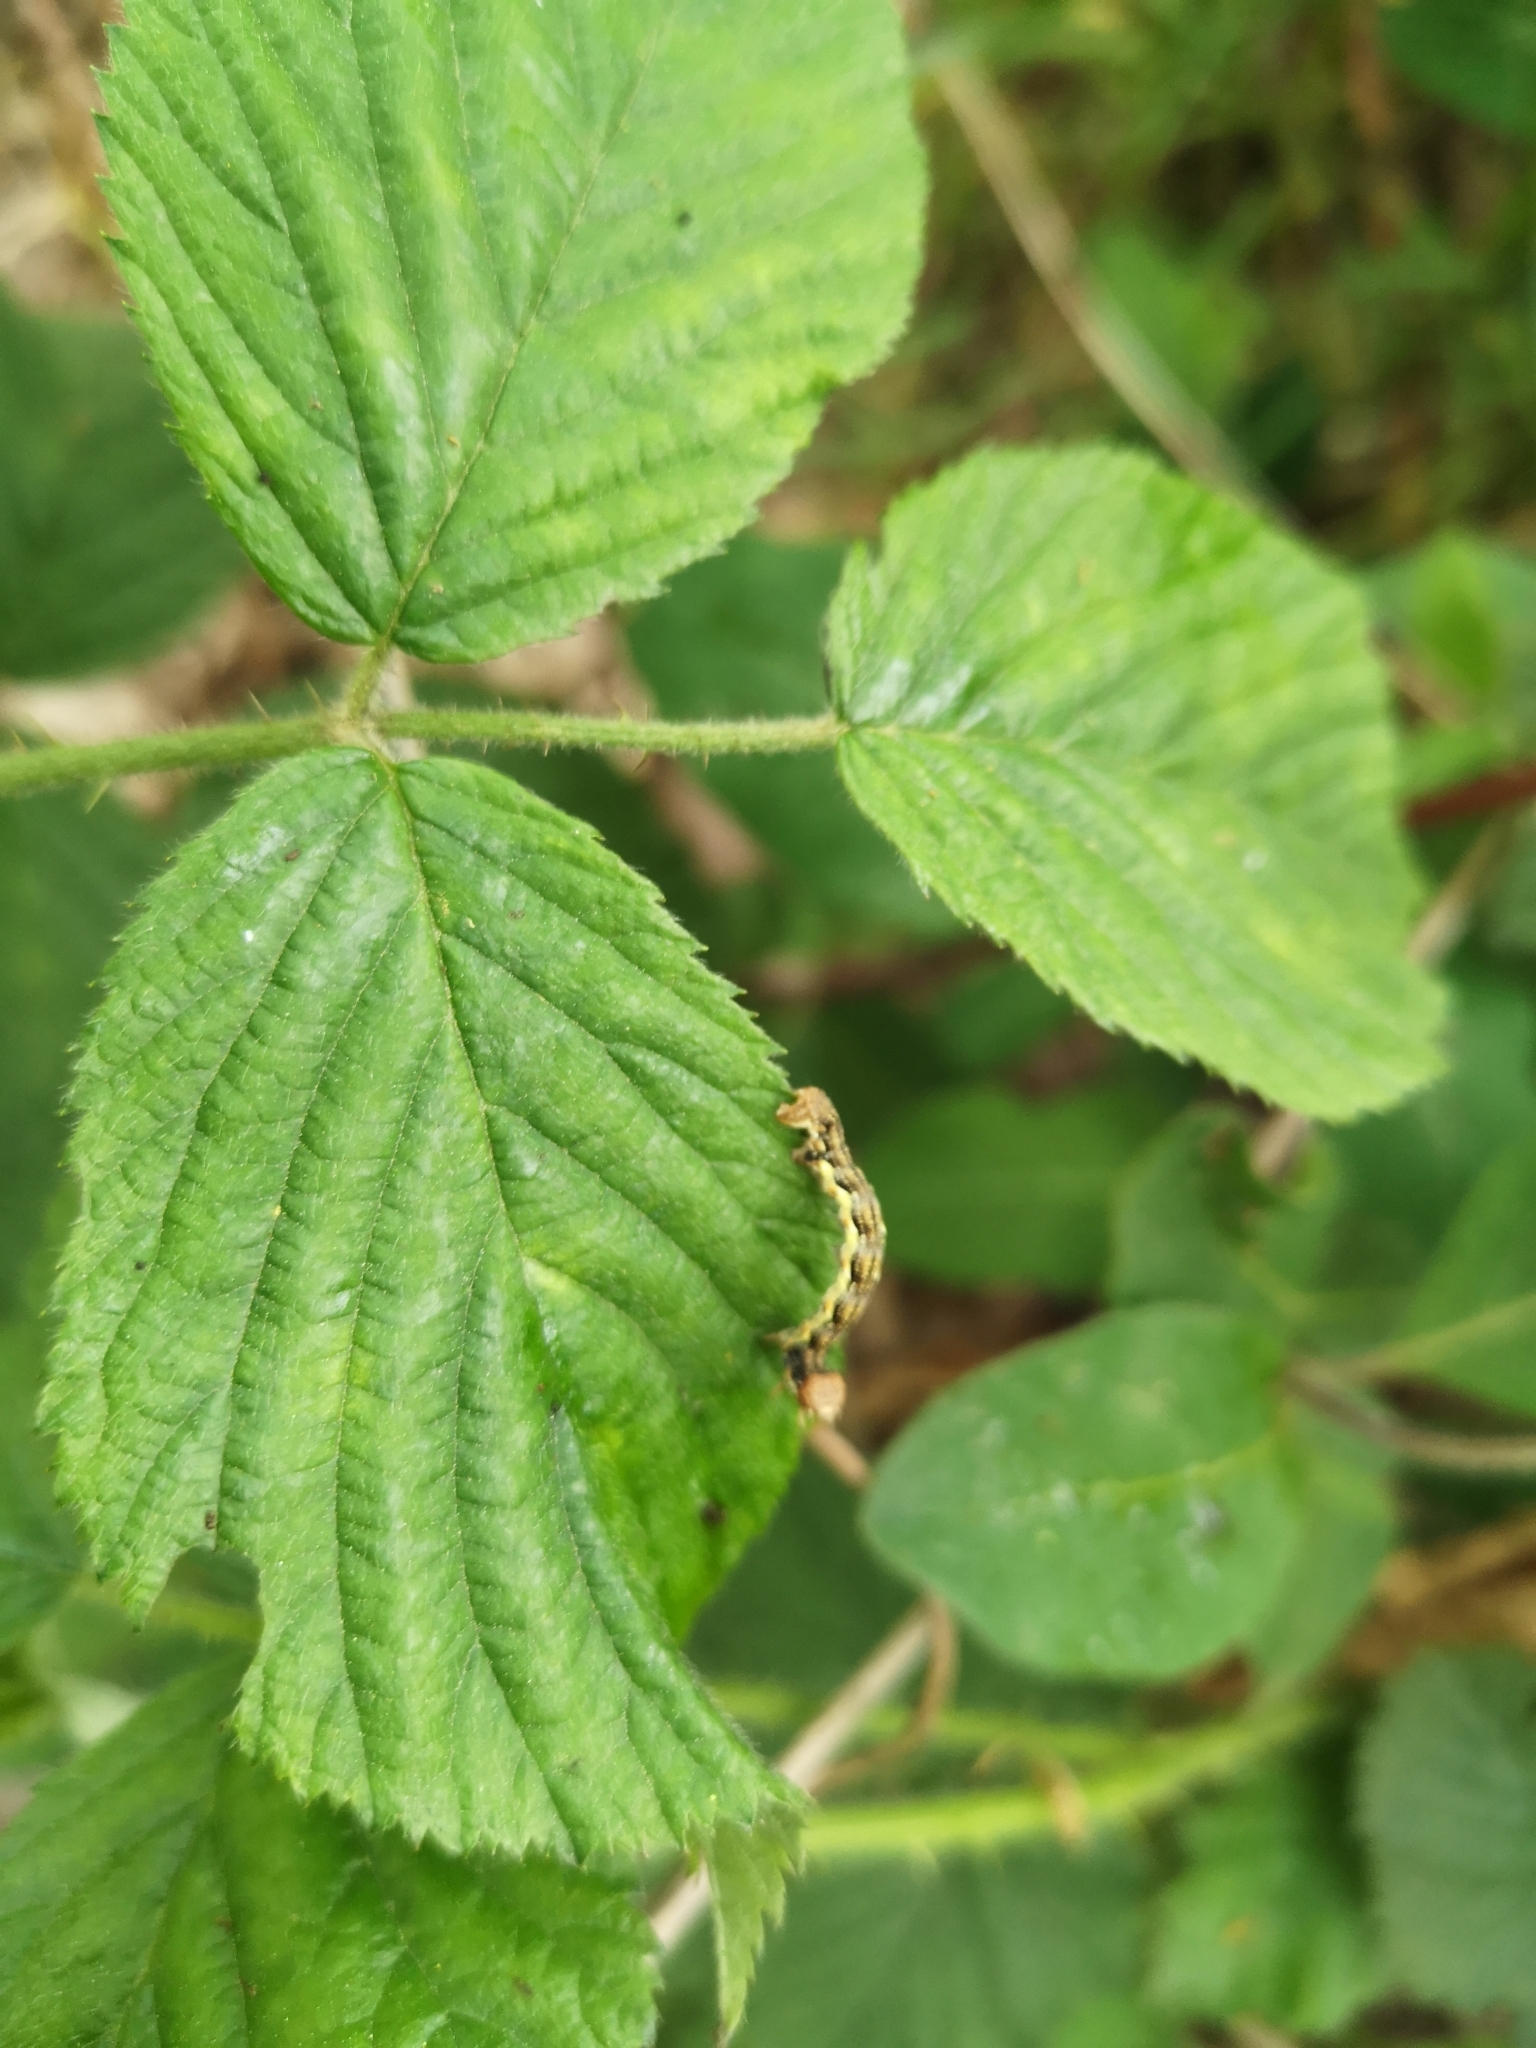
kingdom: Animalia
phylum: Arthropoda
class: Insecta
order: Lepidoptera
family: Geometridae
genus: Erannis
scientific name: Erannis defoliaria
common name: Mottled umber
